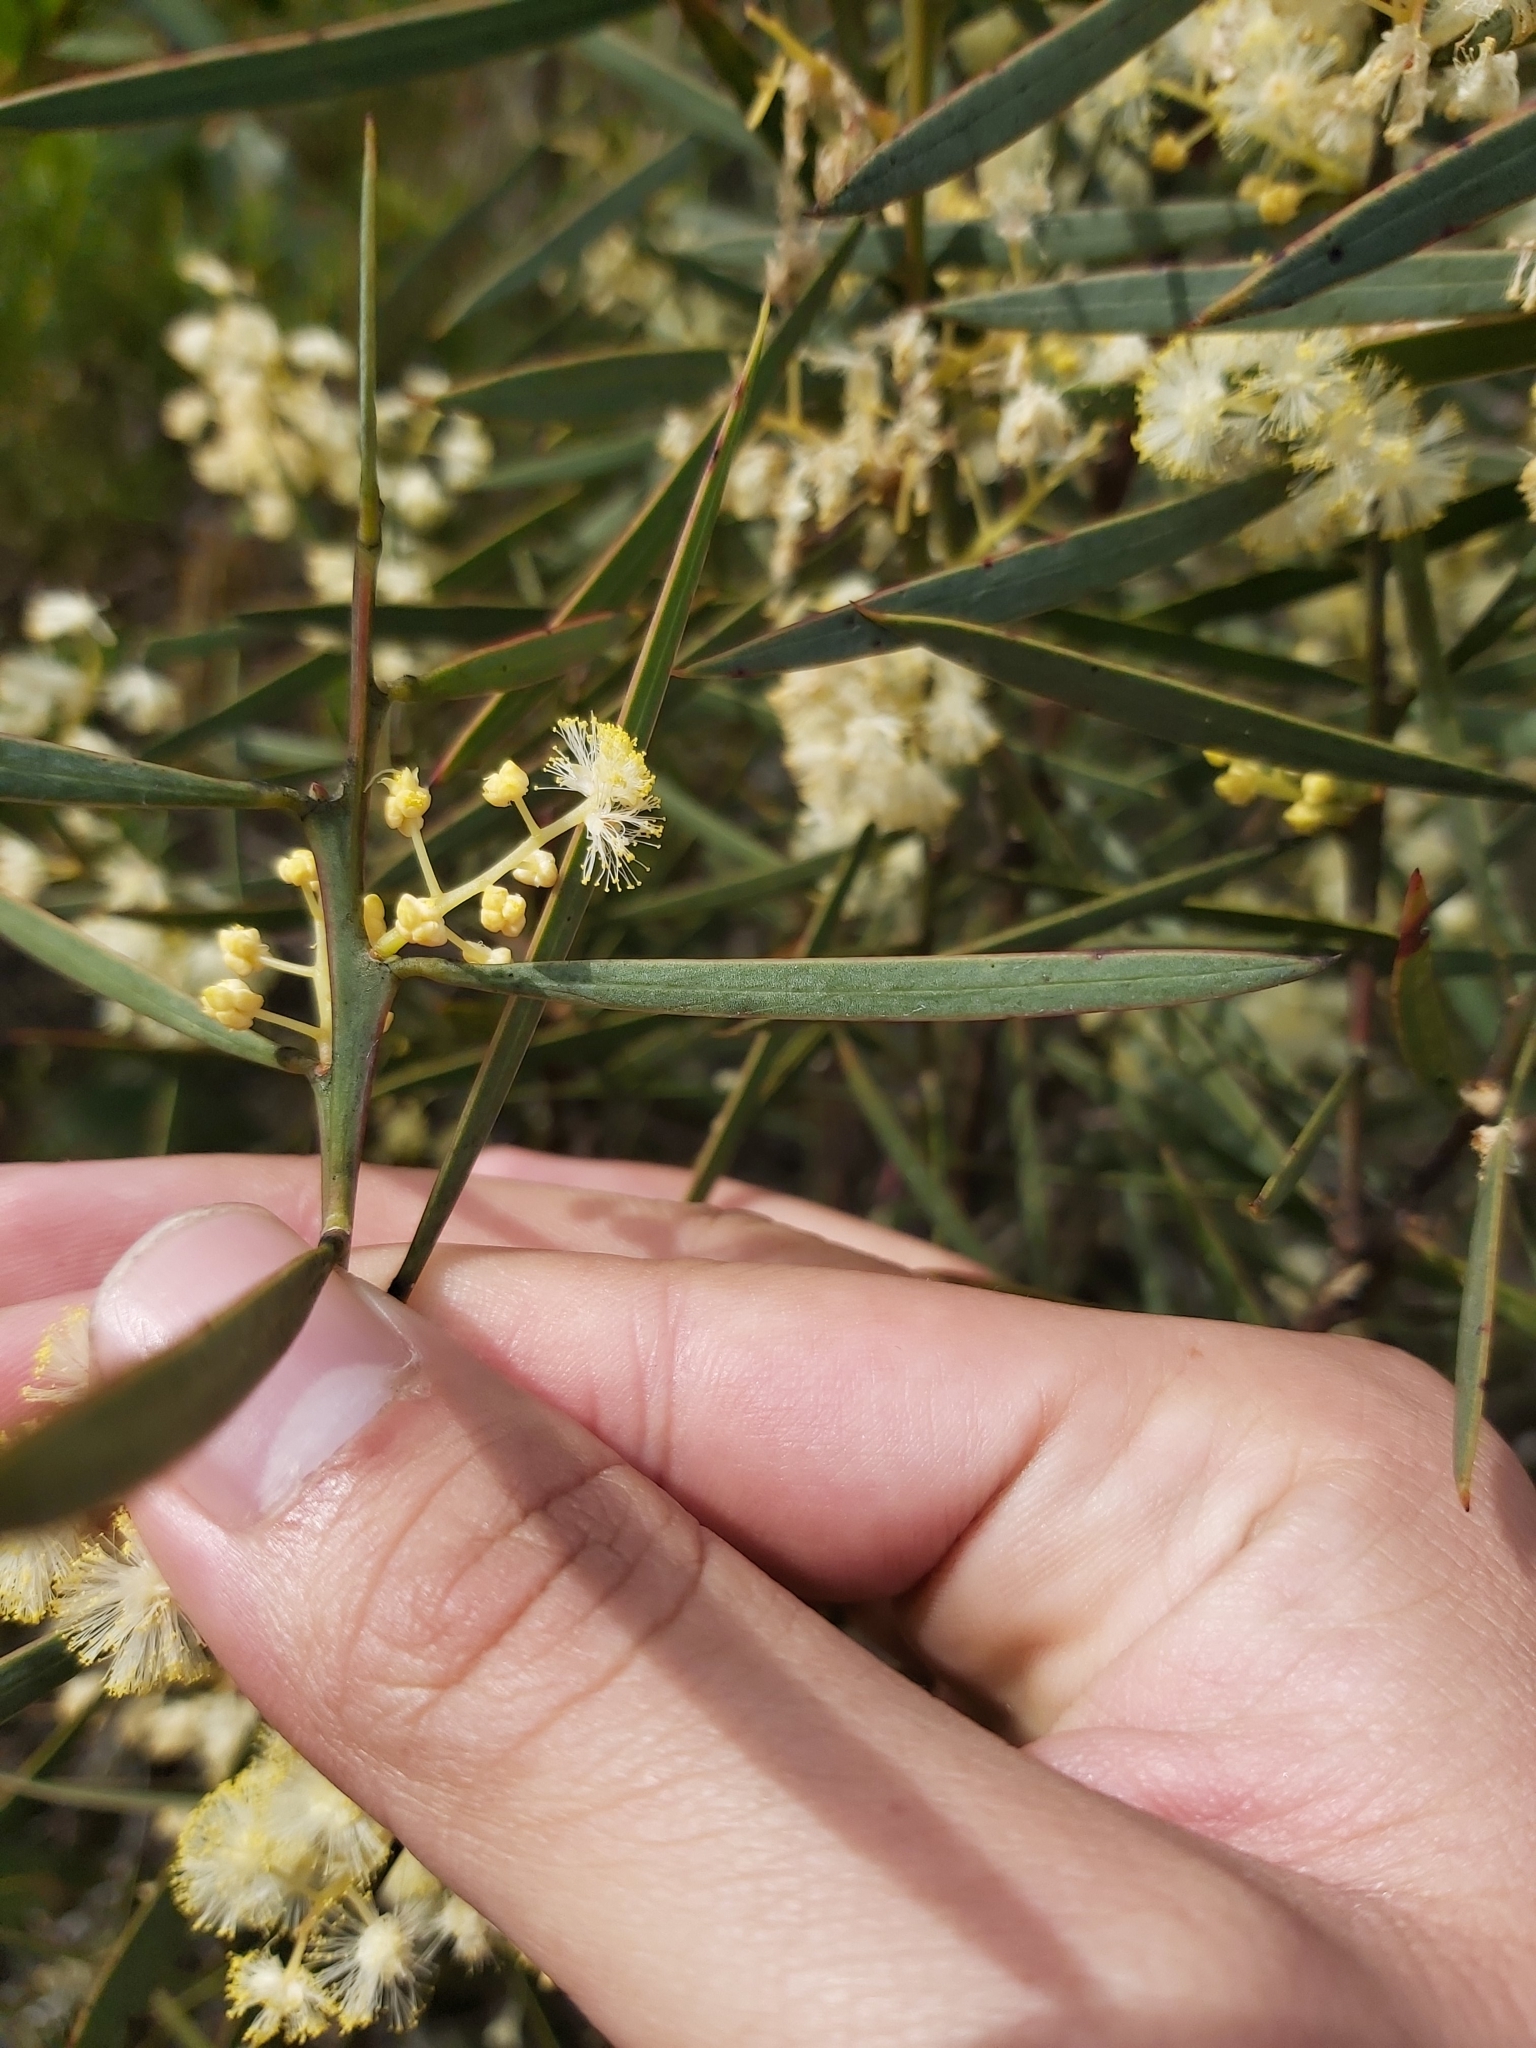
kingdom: Plantae
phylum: Tracheophyta
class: Magnoliopsida
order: Fabales
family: Fabaceae
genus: Acacia
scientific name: Acacia suaveolens
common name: Sweet acacia
